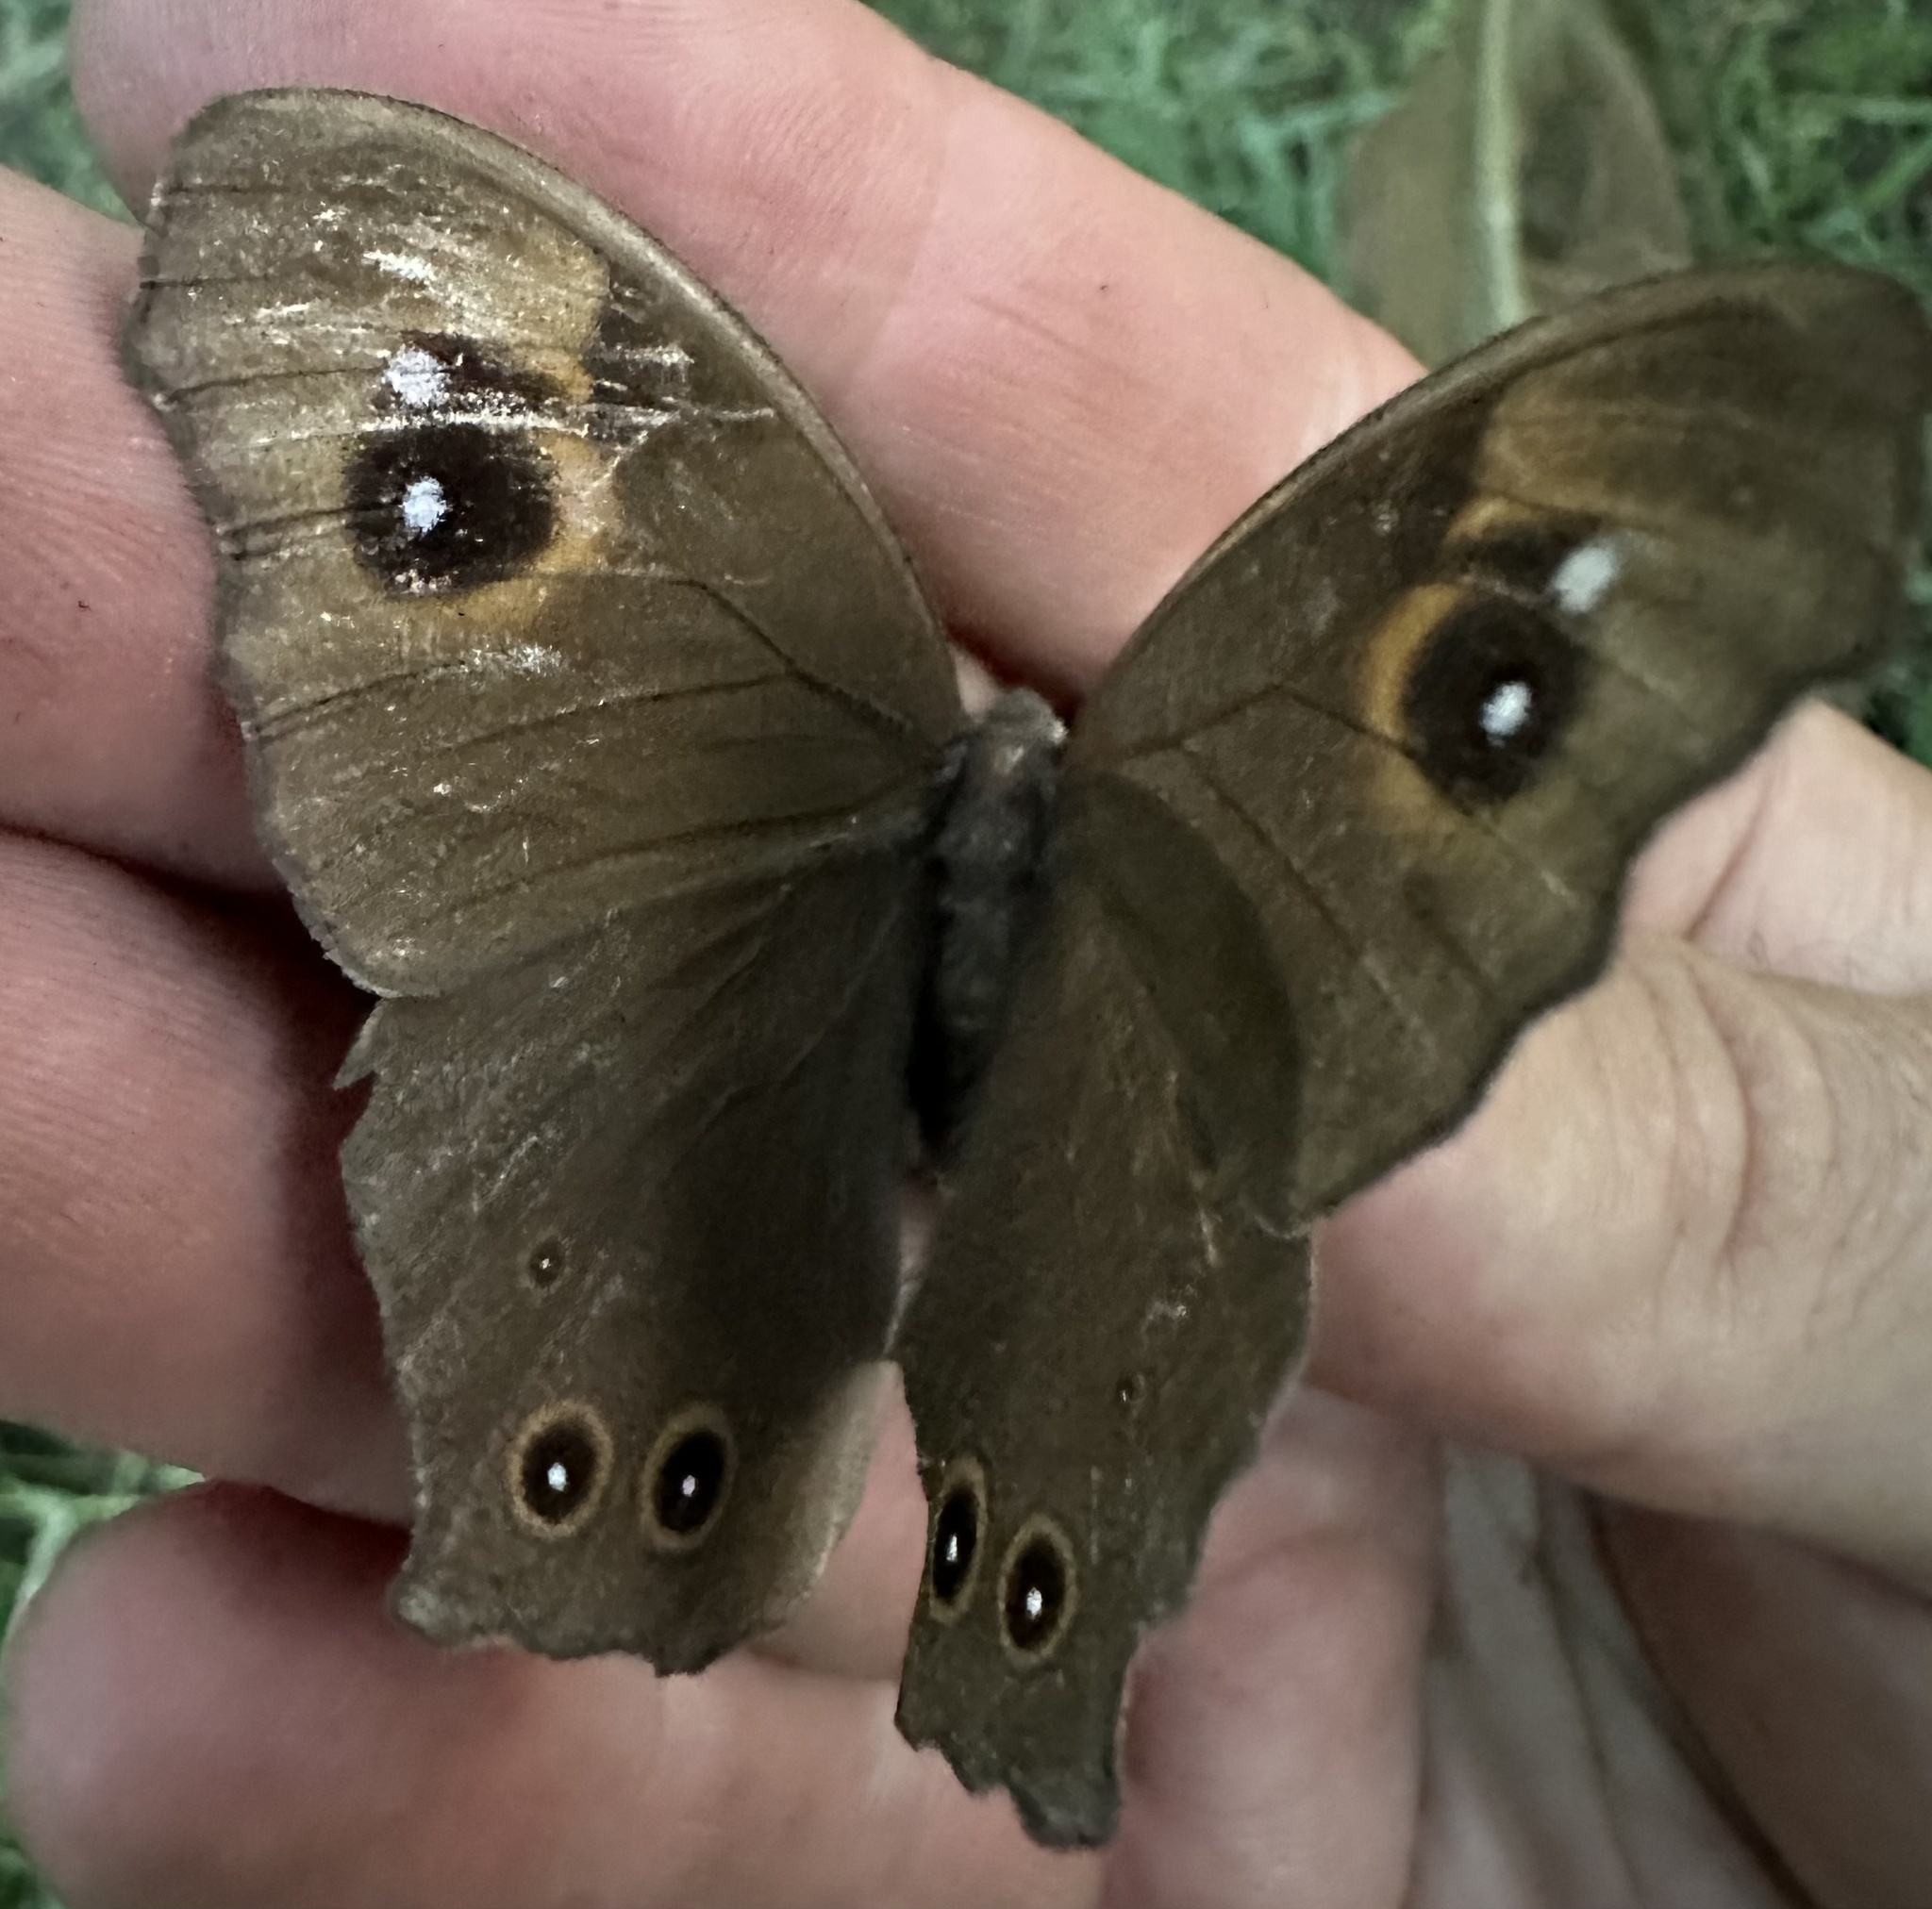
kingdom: Animalia
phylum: Arthropoda
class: Insecta
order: Lepidoptera
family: Nymphalidae
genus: Melanitis
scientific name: Melanitis leda
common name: Twilight brown
